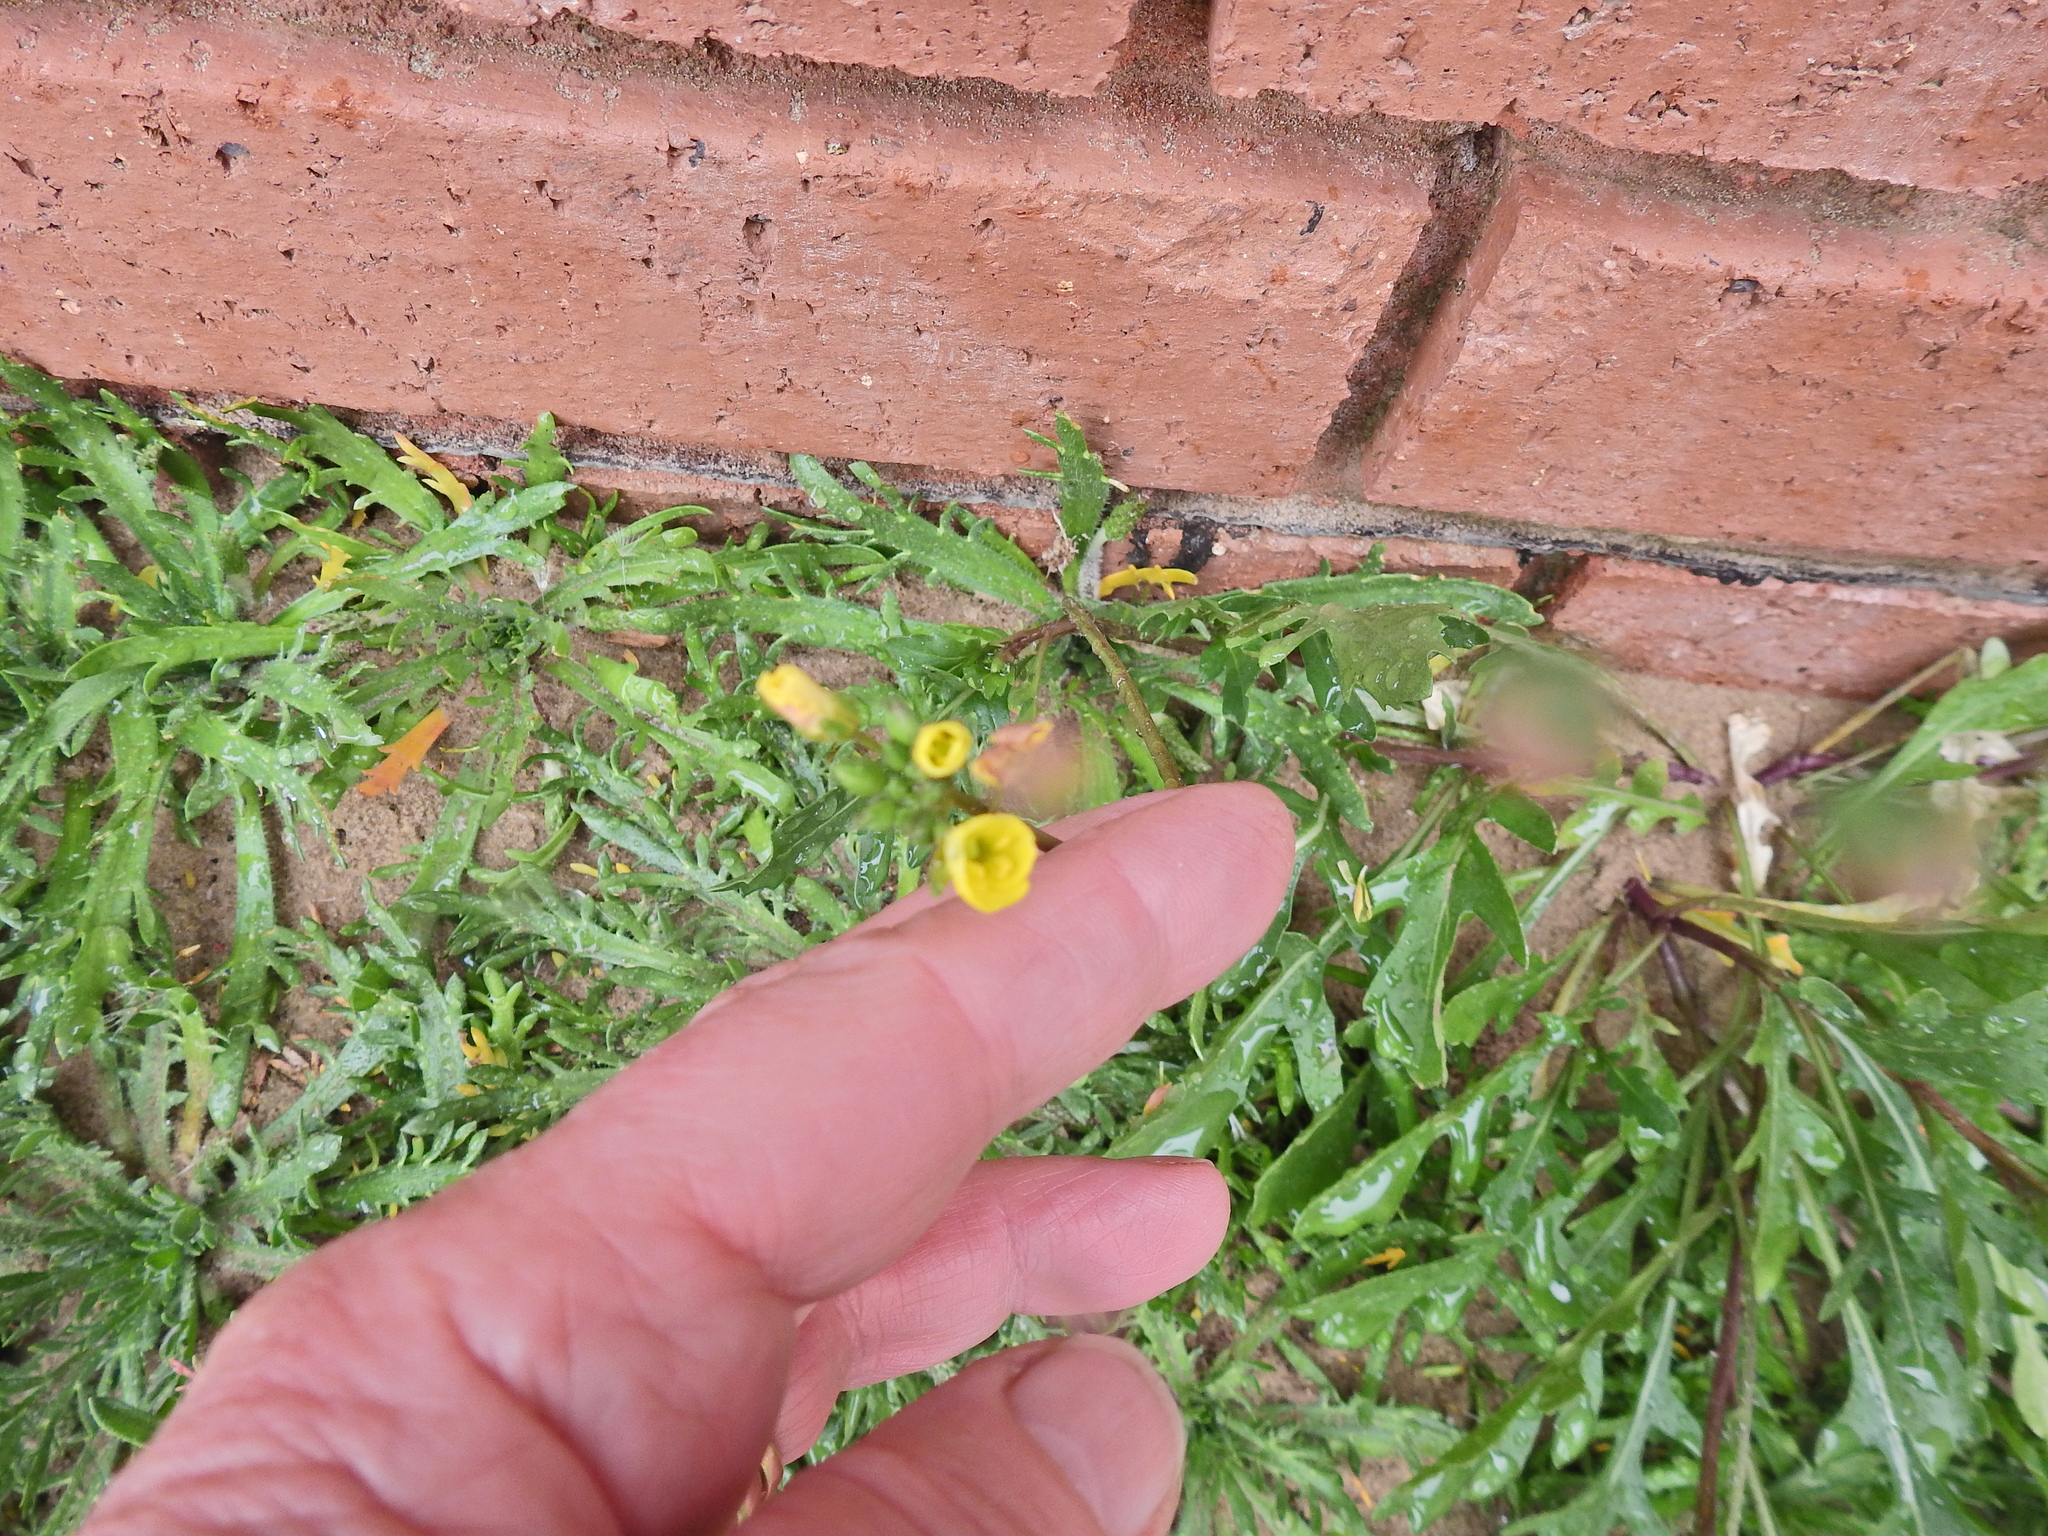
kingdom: Plantae
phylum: Tracheophyta
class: Magnoliopsida
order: Brassicales
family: Brassicaceae
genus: Diplotaxis
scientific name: Diplotaxis muralis
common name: Annual wall-rocket
